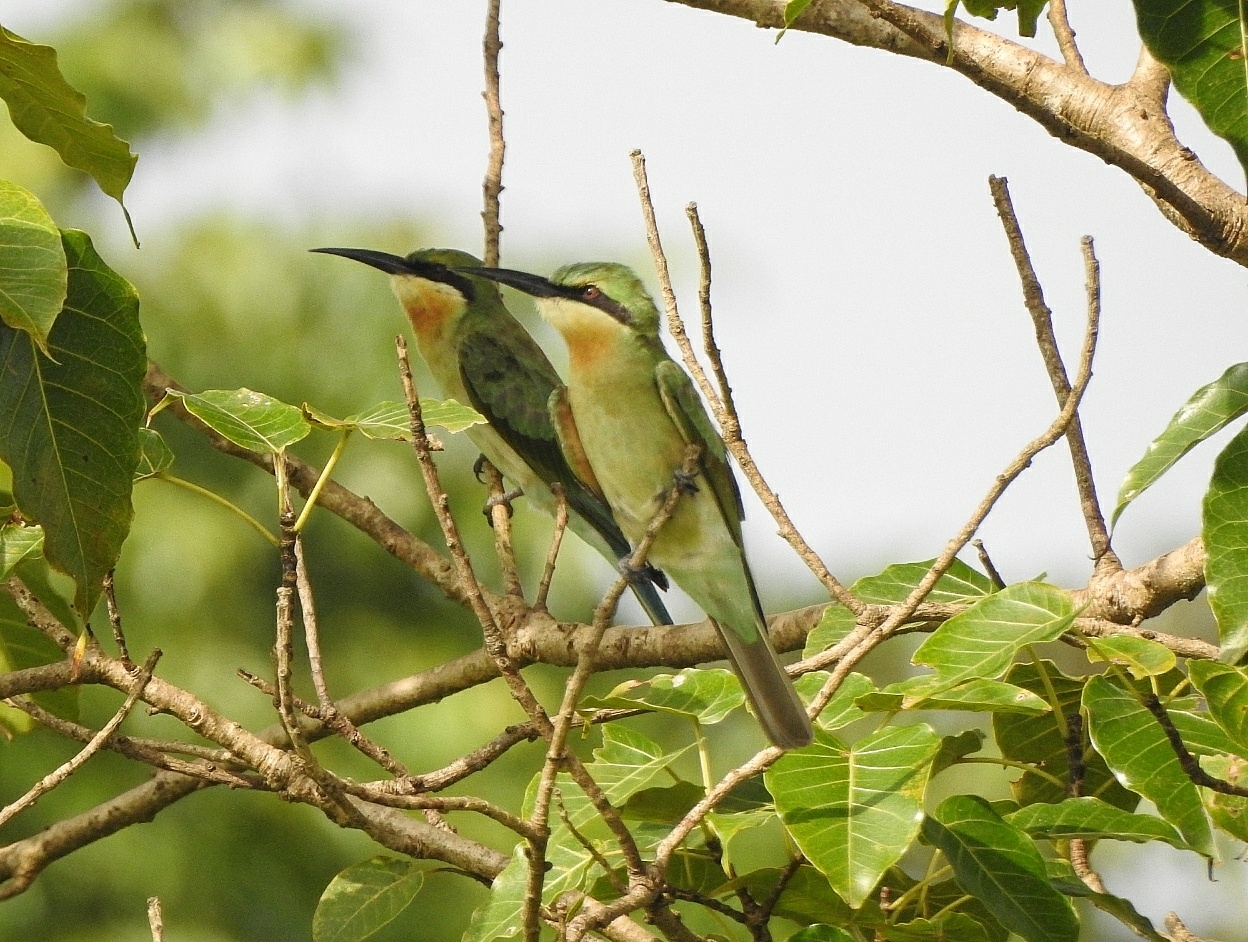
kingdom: Animalia
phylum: Chordata
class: Aves
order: Coraciiformes
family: Meropidae
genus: Merops
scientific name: Merops philippinus
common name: Blue-tailed bee-eater
